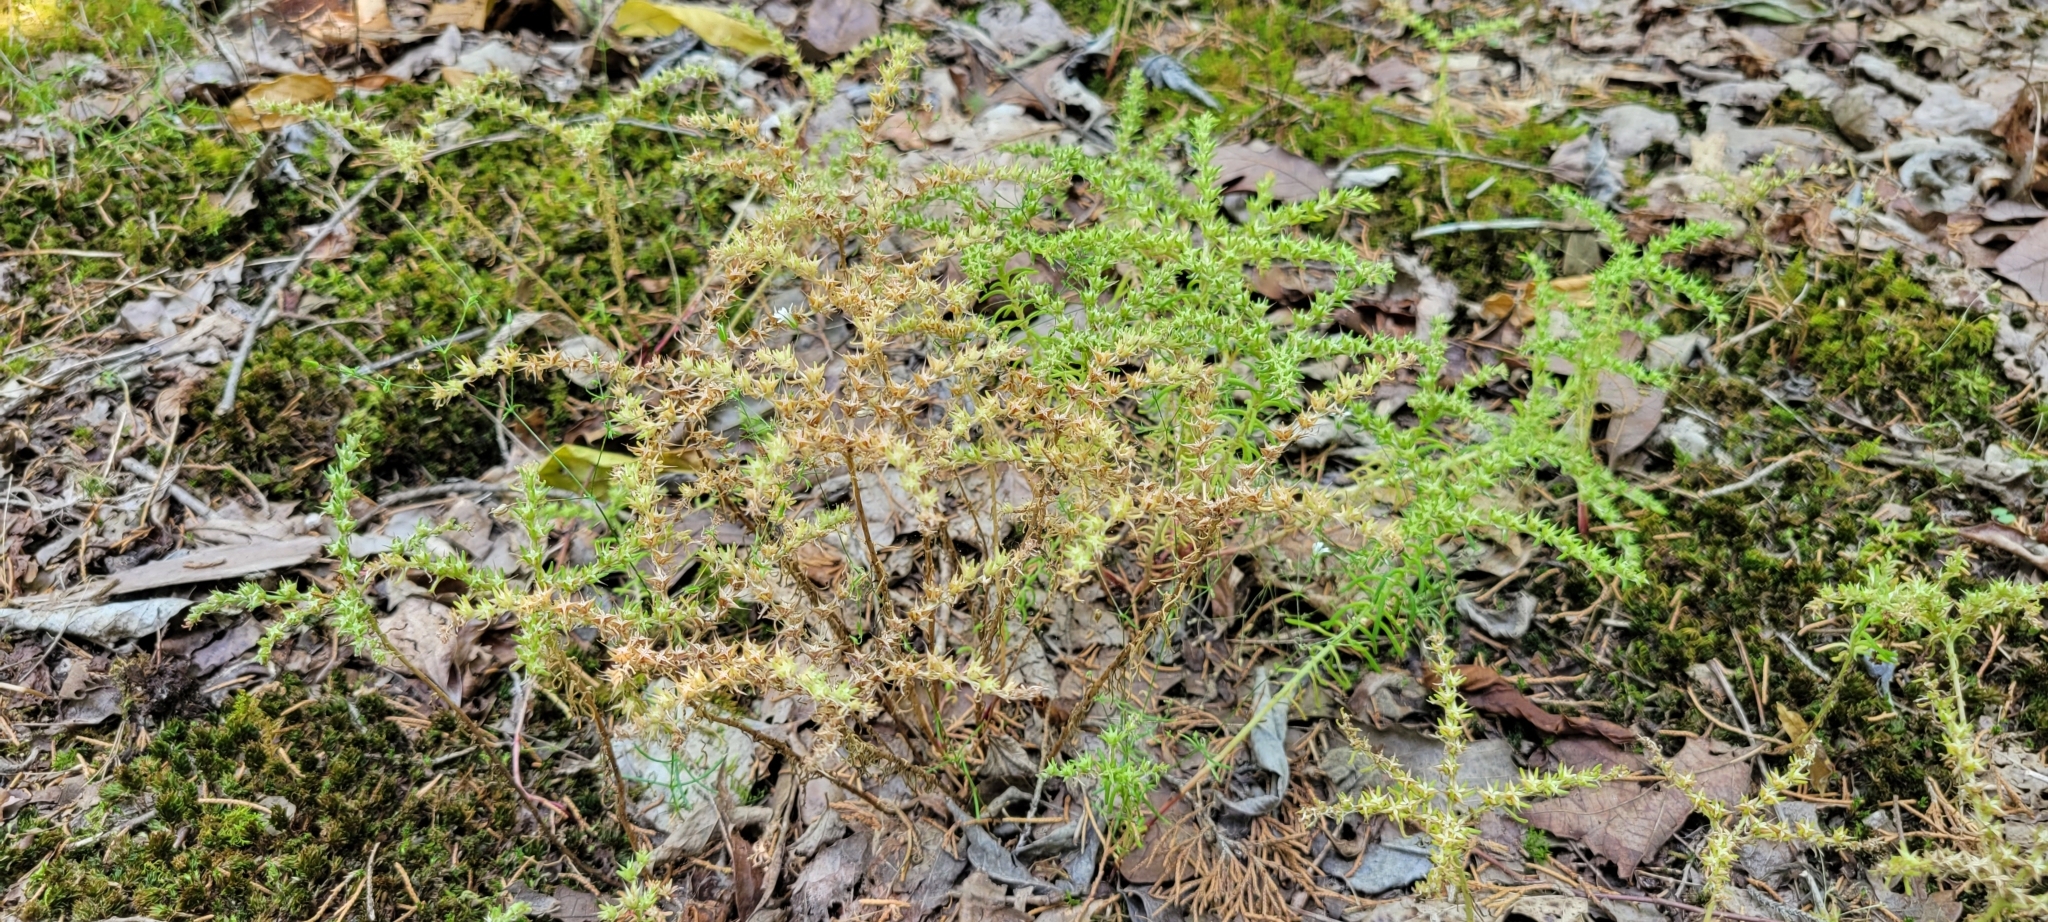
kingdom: Plantae
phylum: Tracheophyta
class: Magnoliopsida
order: Saxifragales
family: Crassulaceae
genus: Sedum
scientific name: Sedum pulchellum
